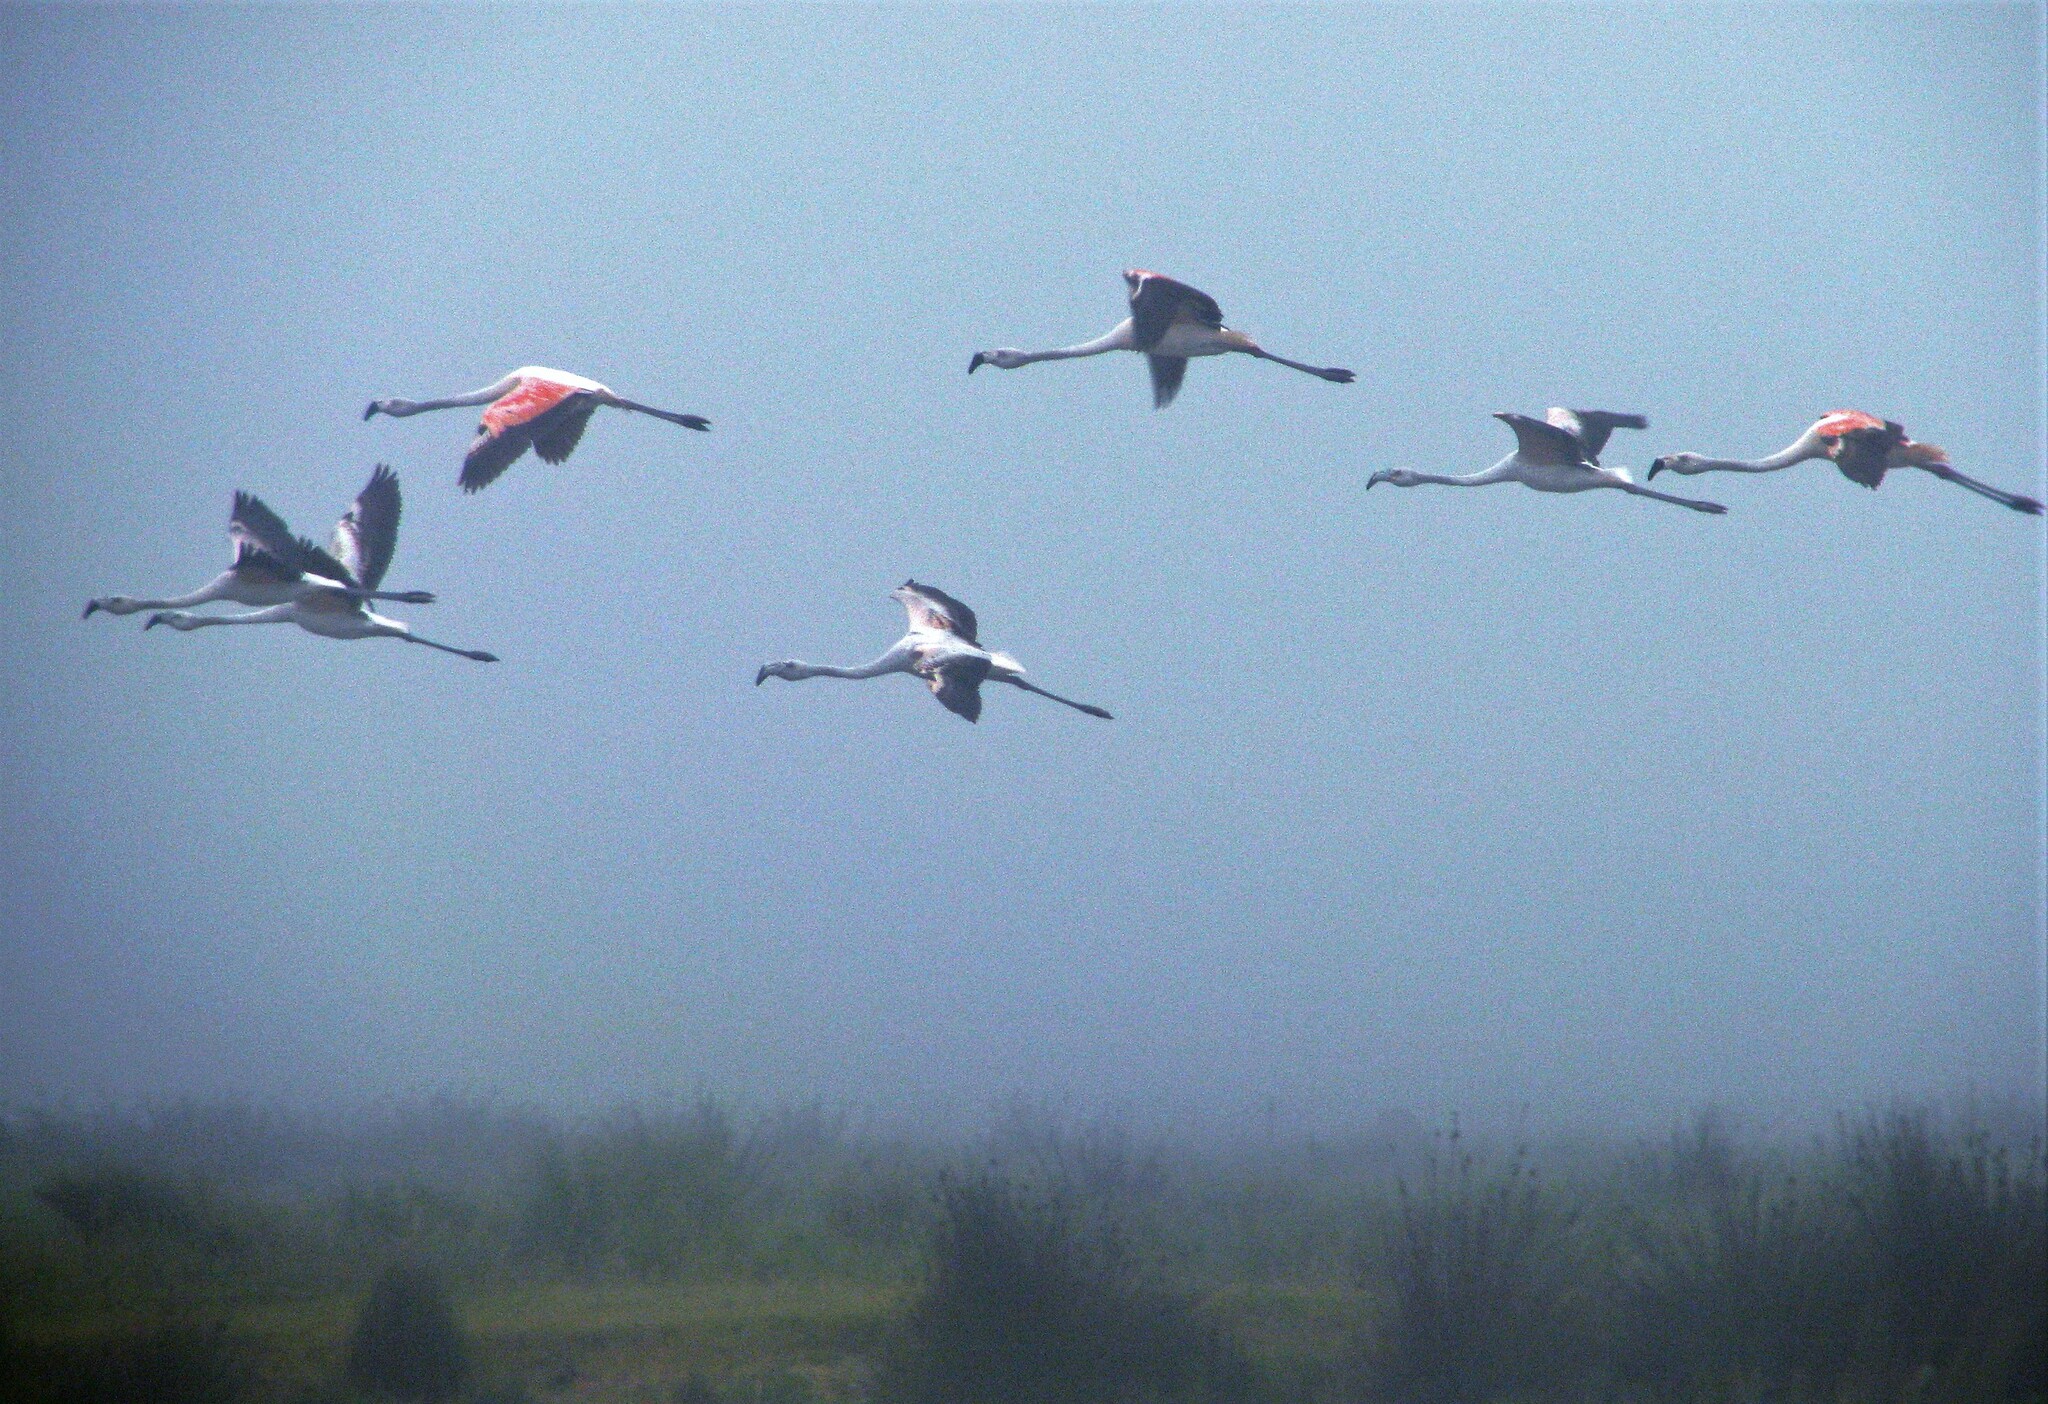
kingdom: Animalia
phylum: Chordata
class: Aves
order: Phoenicopteriformes
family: Phoenicopteridae
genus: Phoenicopterus
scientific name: Phoenicopterus chilensis
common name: Chilean flamingo
